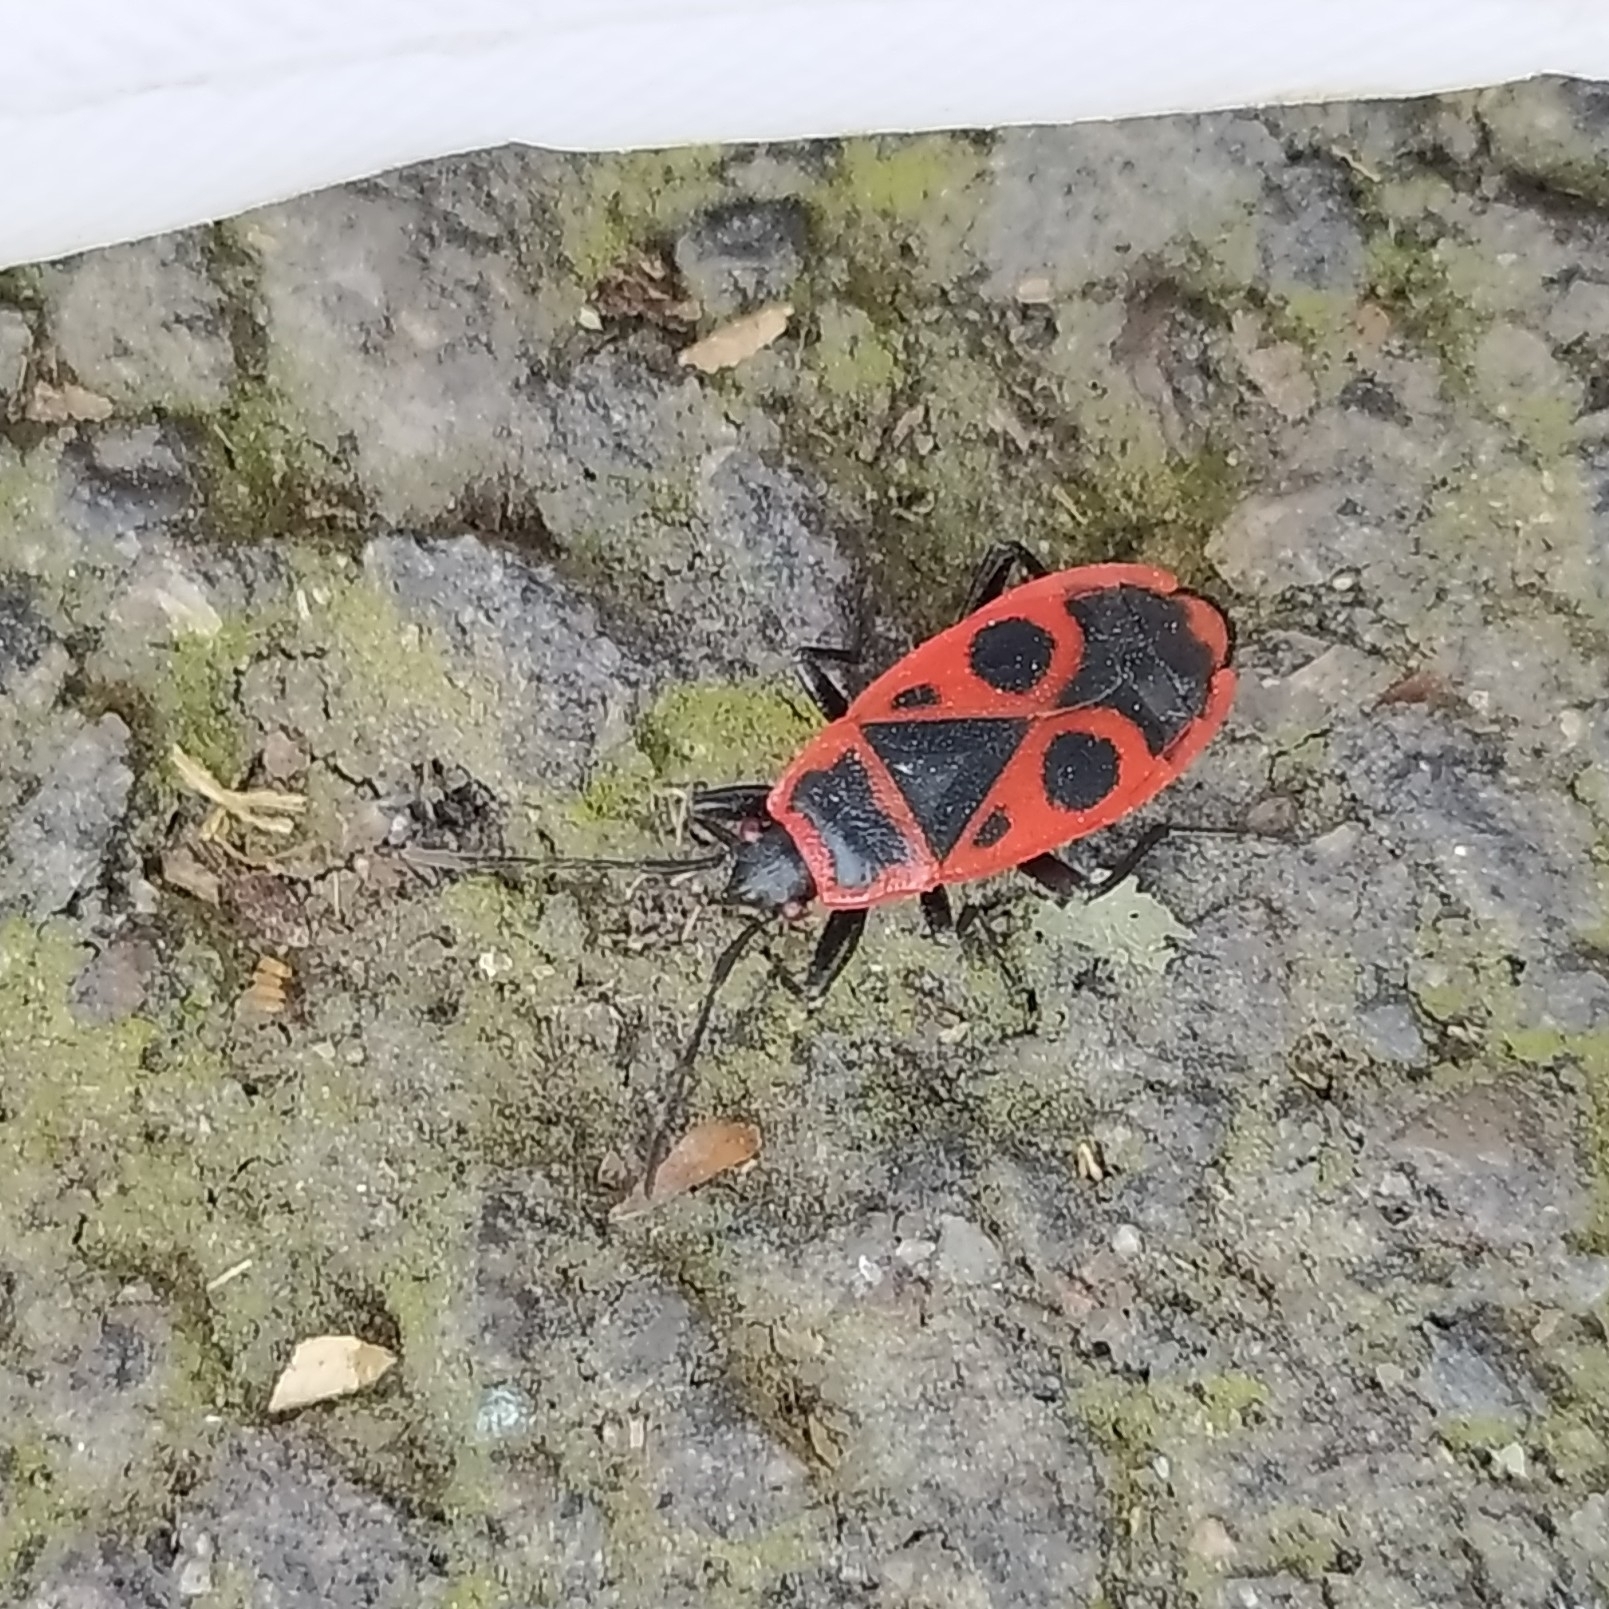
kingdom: Animalia
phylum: Arthropoda
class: Insecta
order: Hemiptera
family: Pyrrhocoridae
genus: Pyrrhocoris
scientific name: Pyrrhocoris apterus
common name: Firebug
